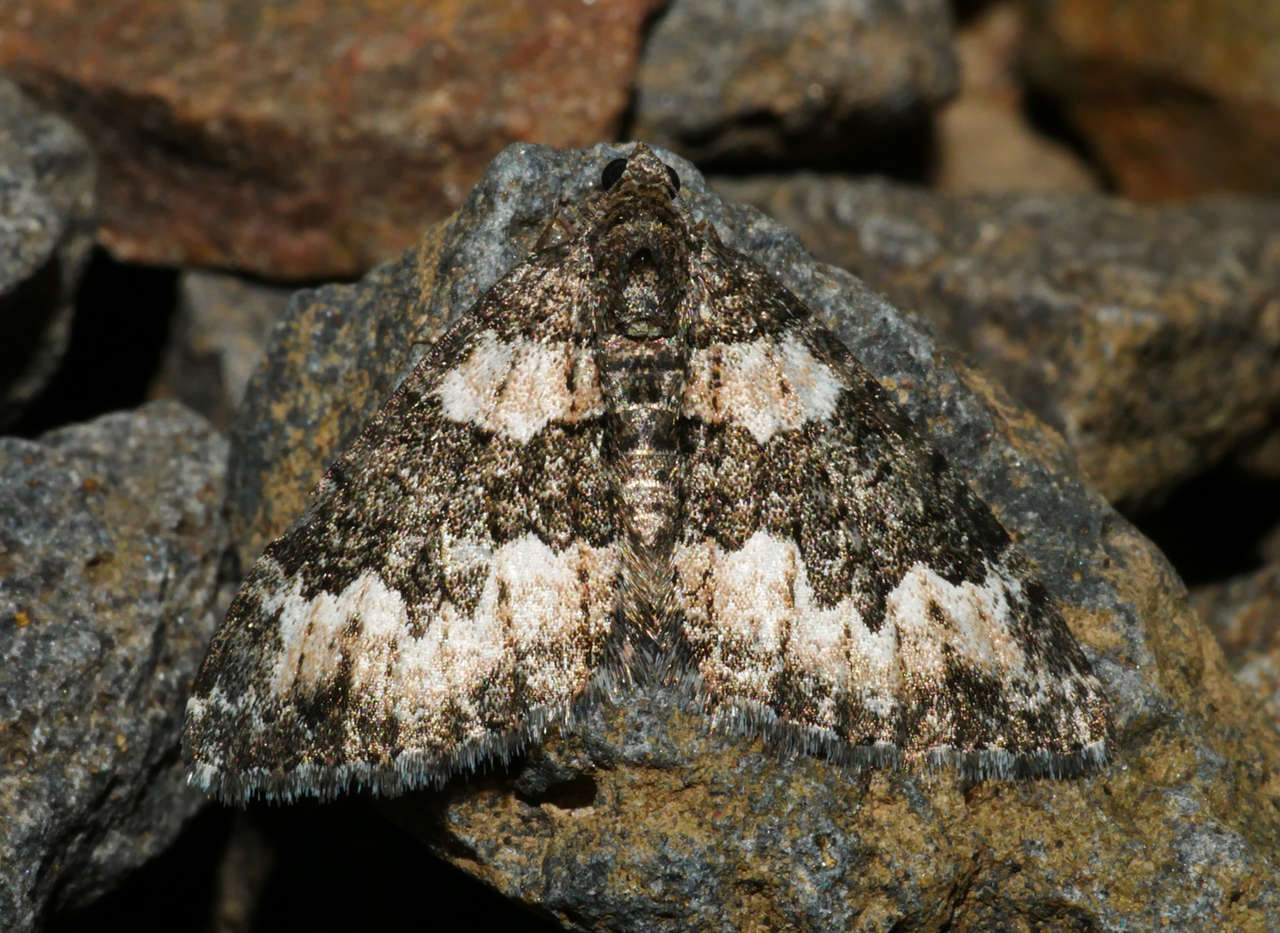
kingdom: Animalia
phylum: Arthropoda
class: Insecta
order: Lepidoptera
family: Geometridae
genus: Chrysolarentia
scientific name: Chrysolarentia gypsomela
